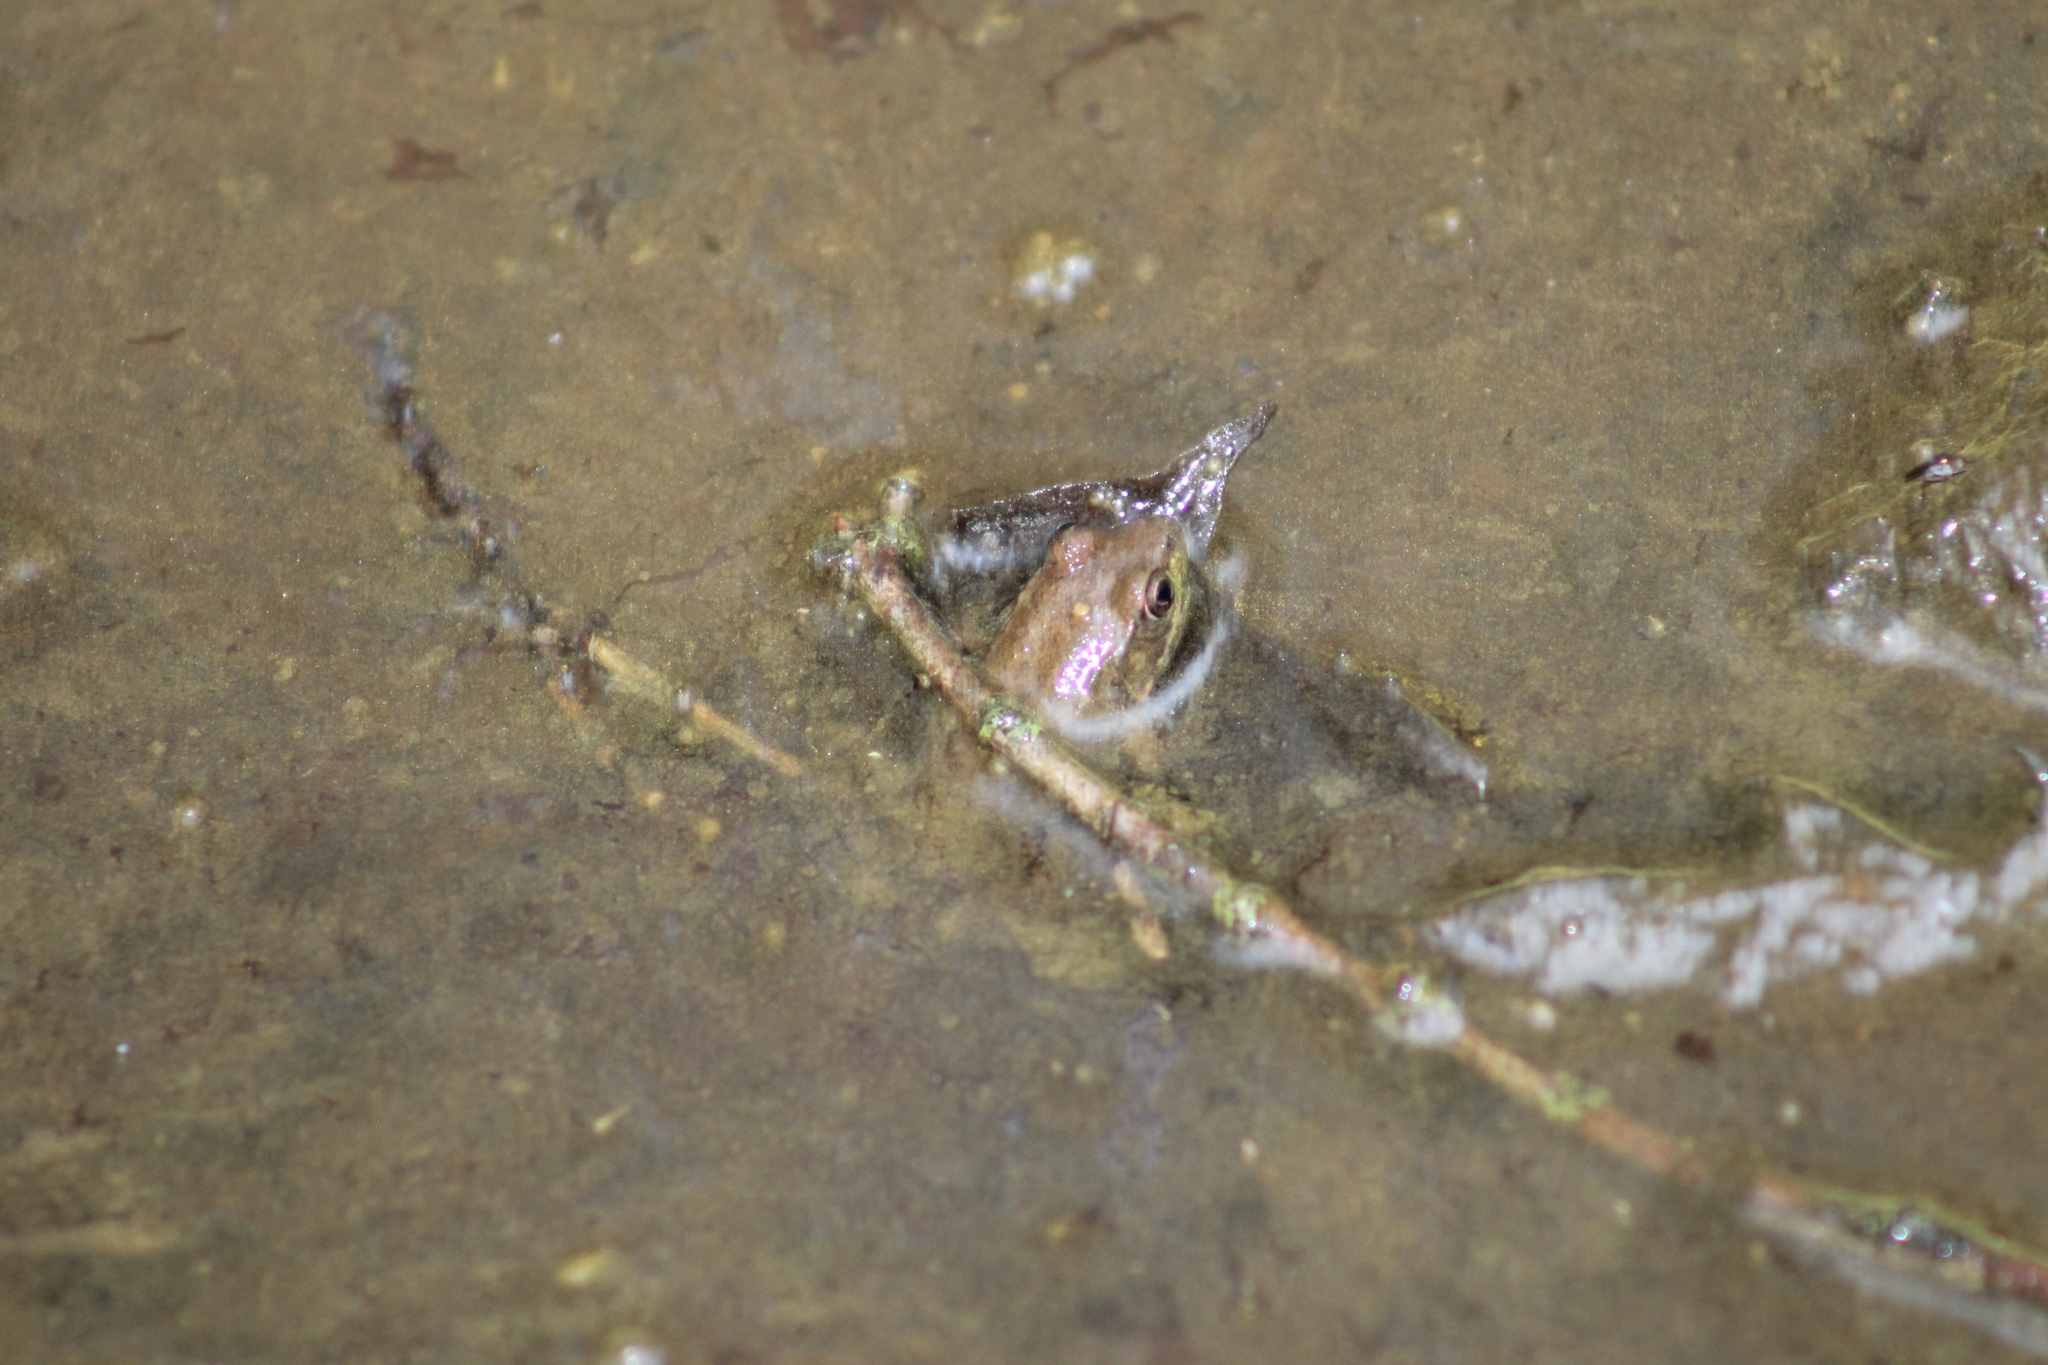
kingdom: Animalia
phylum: Chordata
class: Amphibia
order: Anura
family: Ranidae
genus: Lithobates
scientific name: Lithobates clamitans
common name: Green frog
